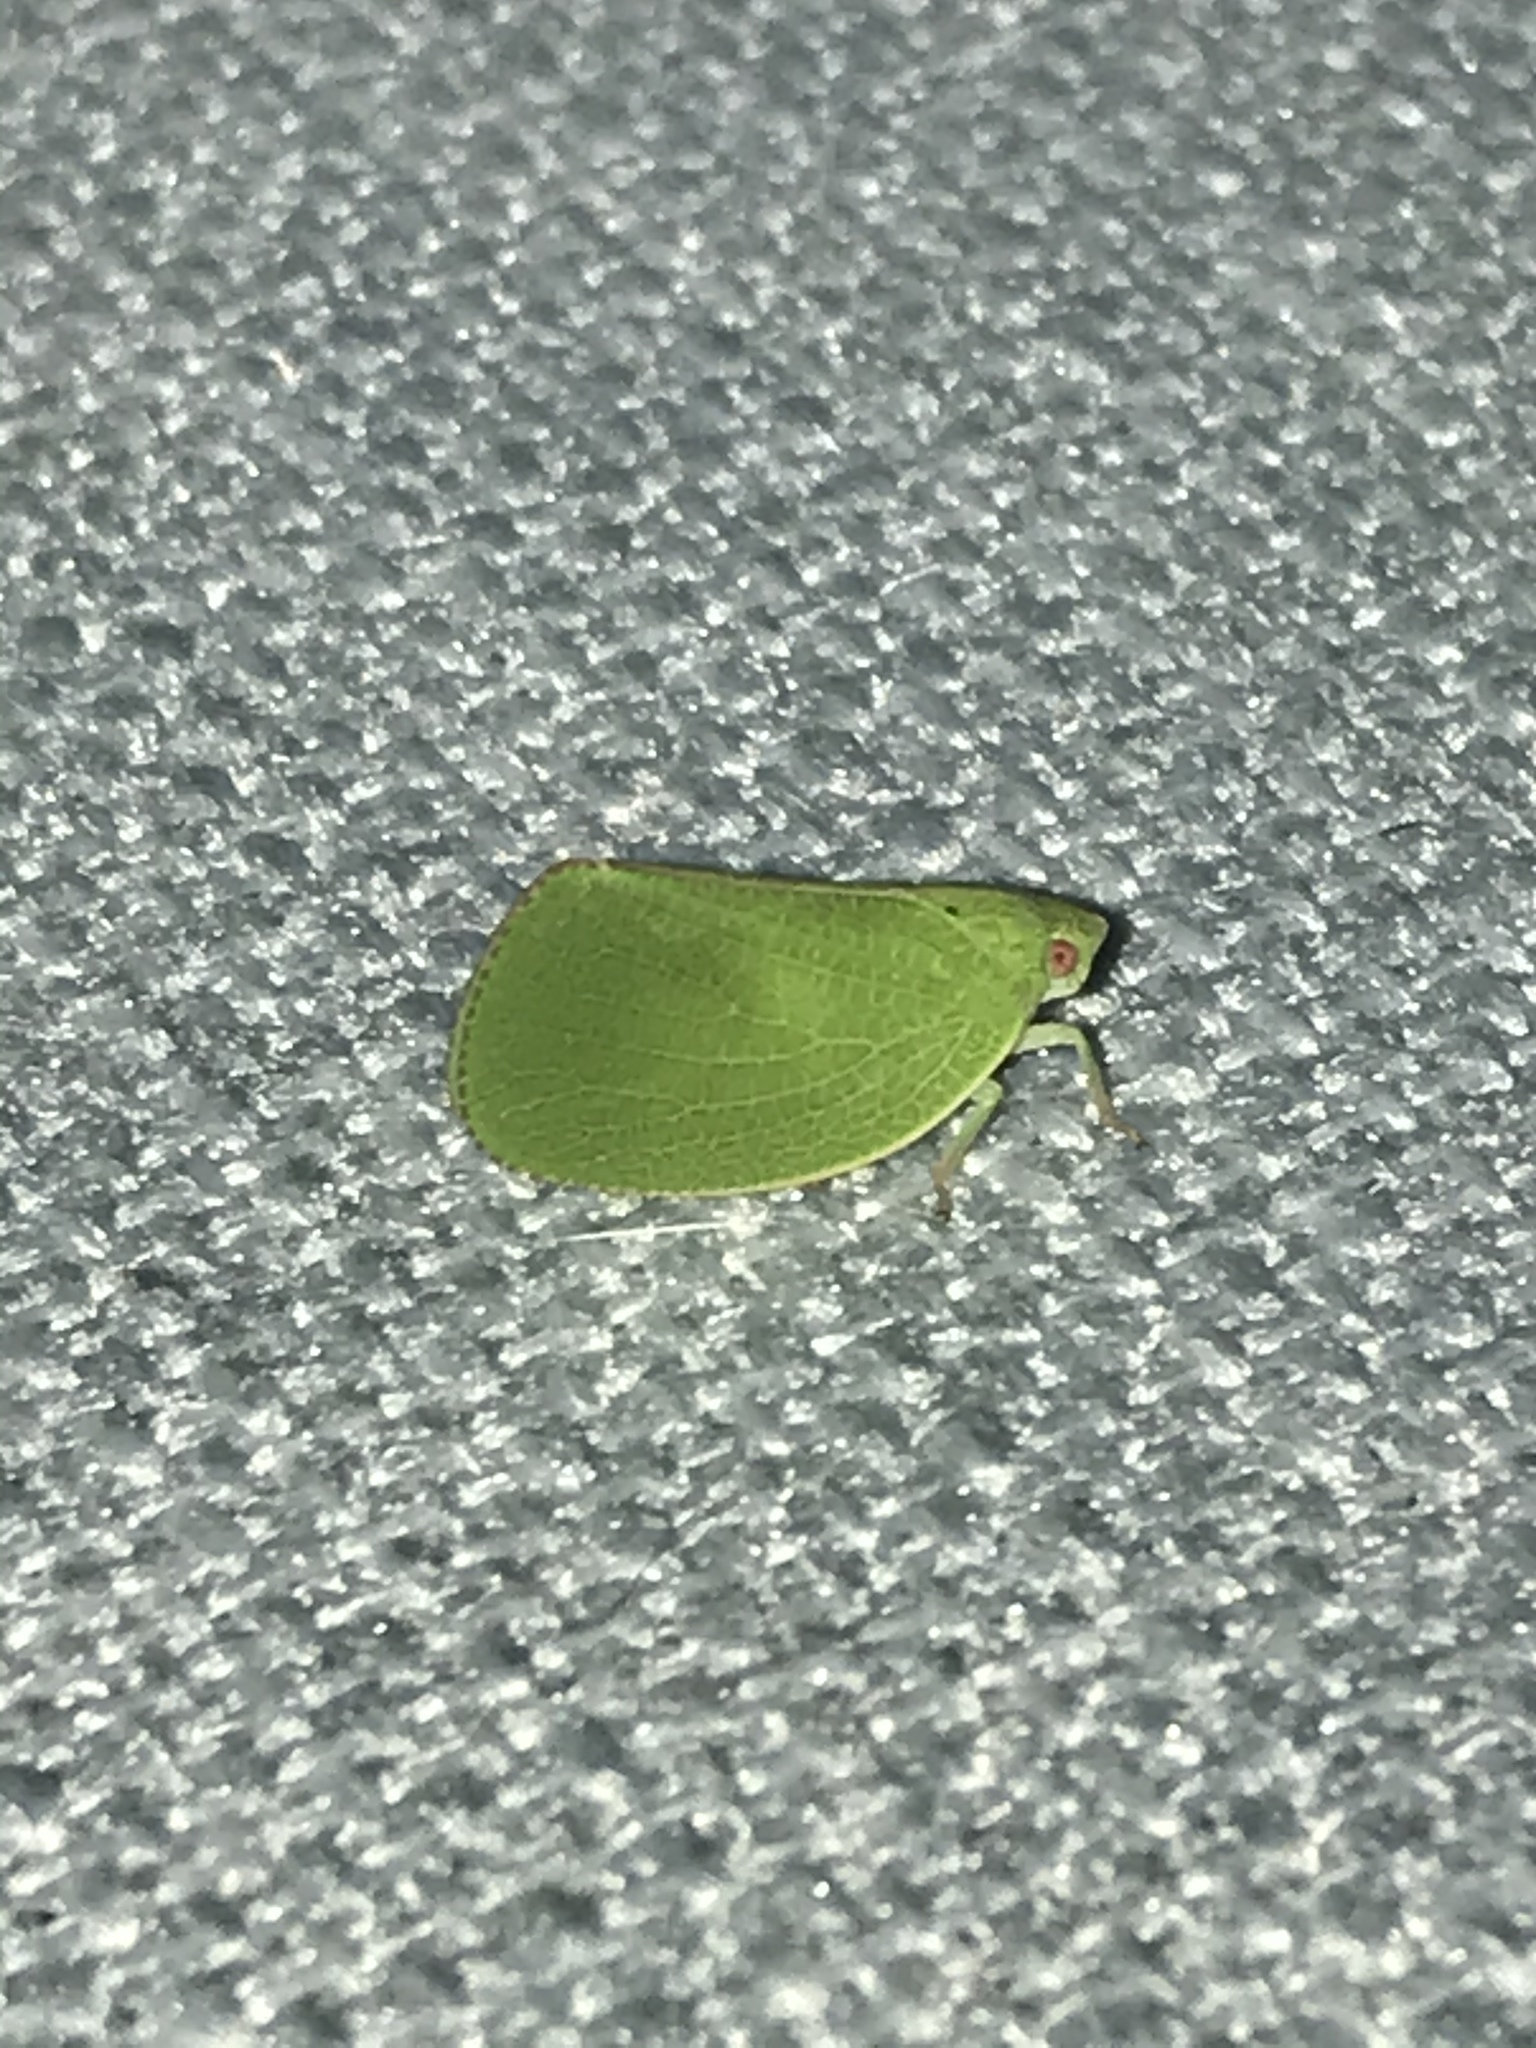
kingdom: Animalia
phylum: Arthropoda
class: Insecta
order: Hemiptera
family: Acanaloniidae
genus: Acanalonia
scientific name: Acanalonia conica
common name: Green cone-headed planthopper
